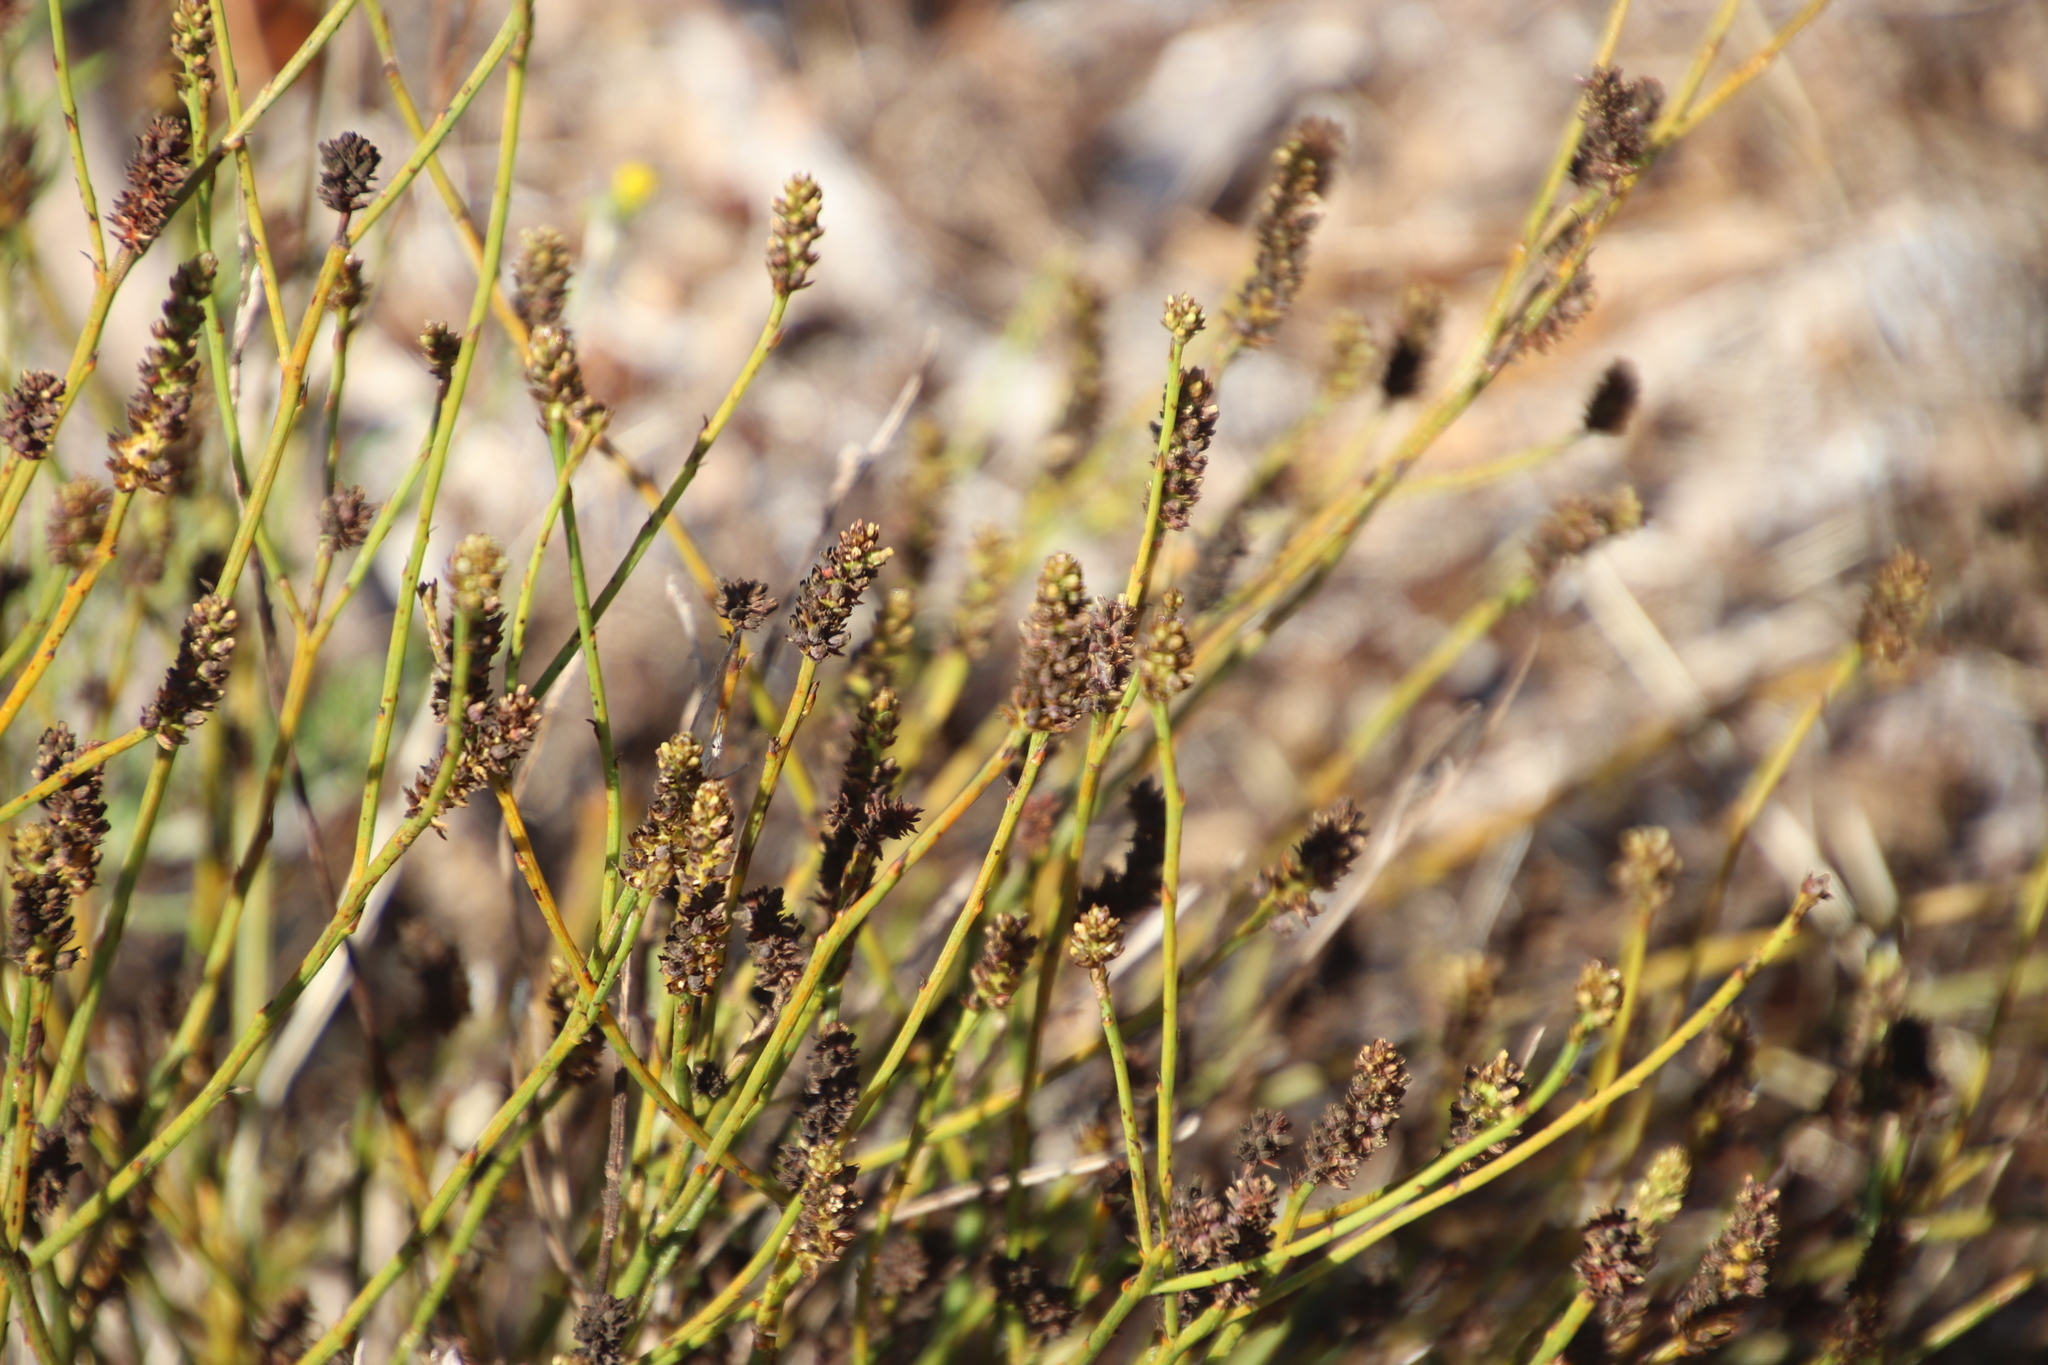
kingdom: Plantae
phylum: Tracheophyta
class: Magnoliopsida
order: Santalales
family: Thesiaceae
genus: Thesium
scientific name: Thesium aggregatum
